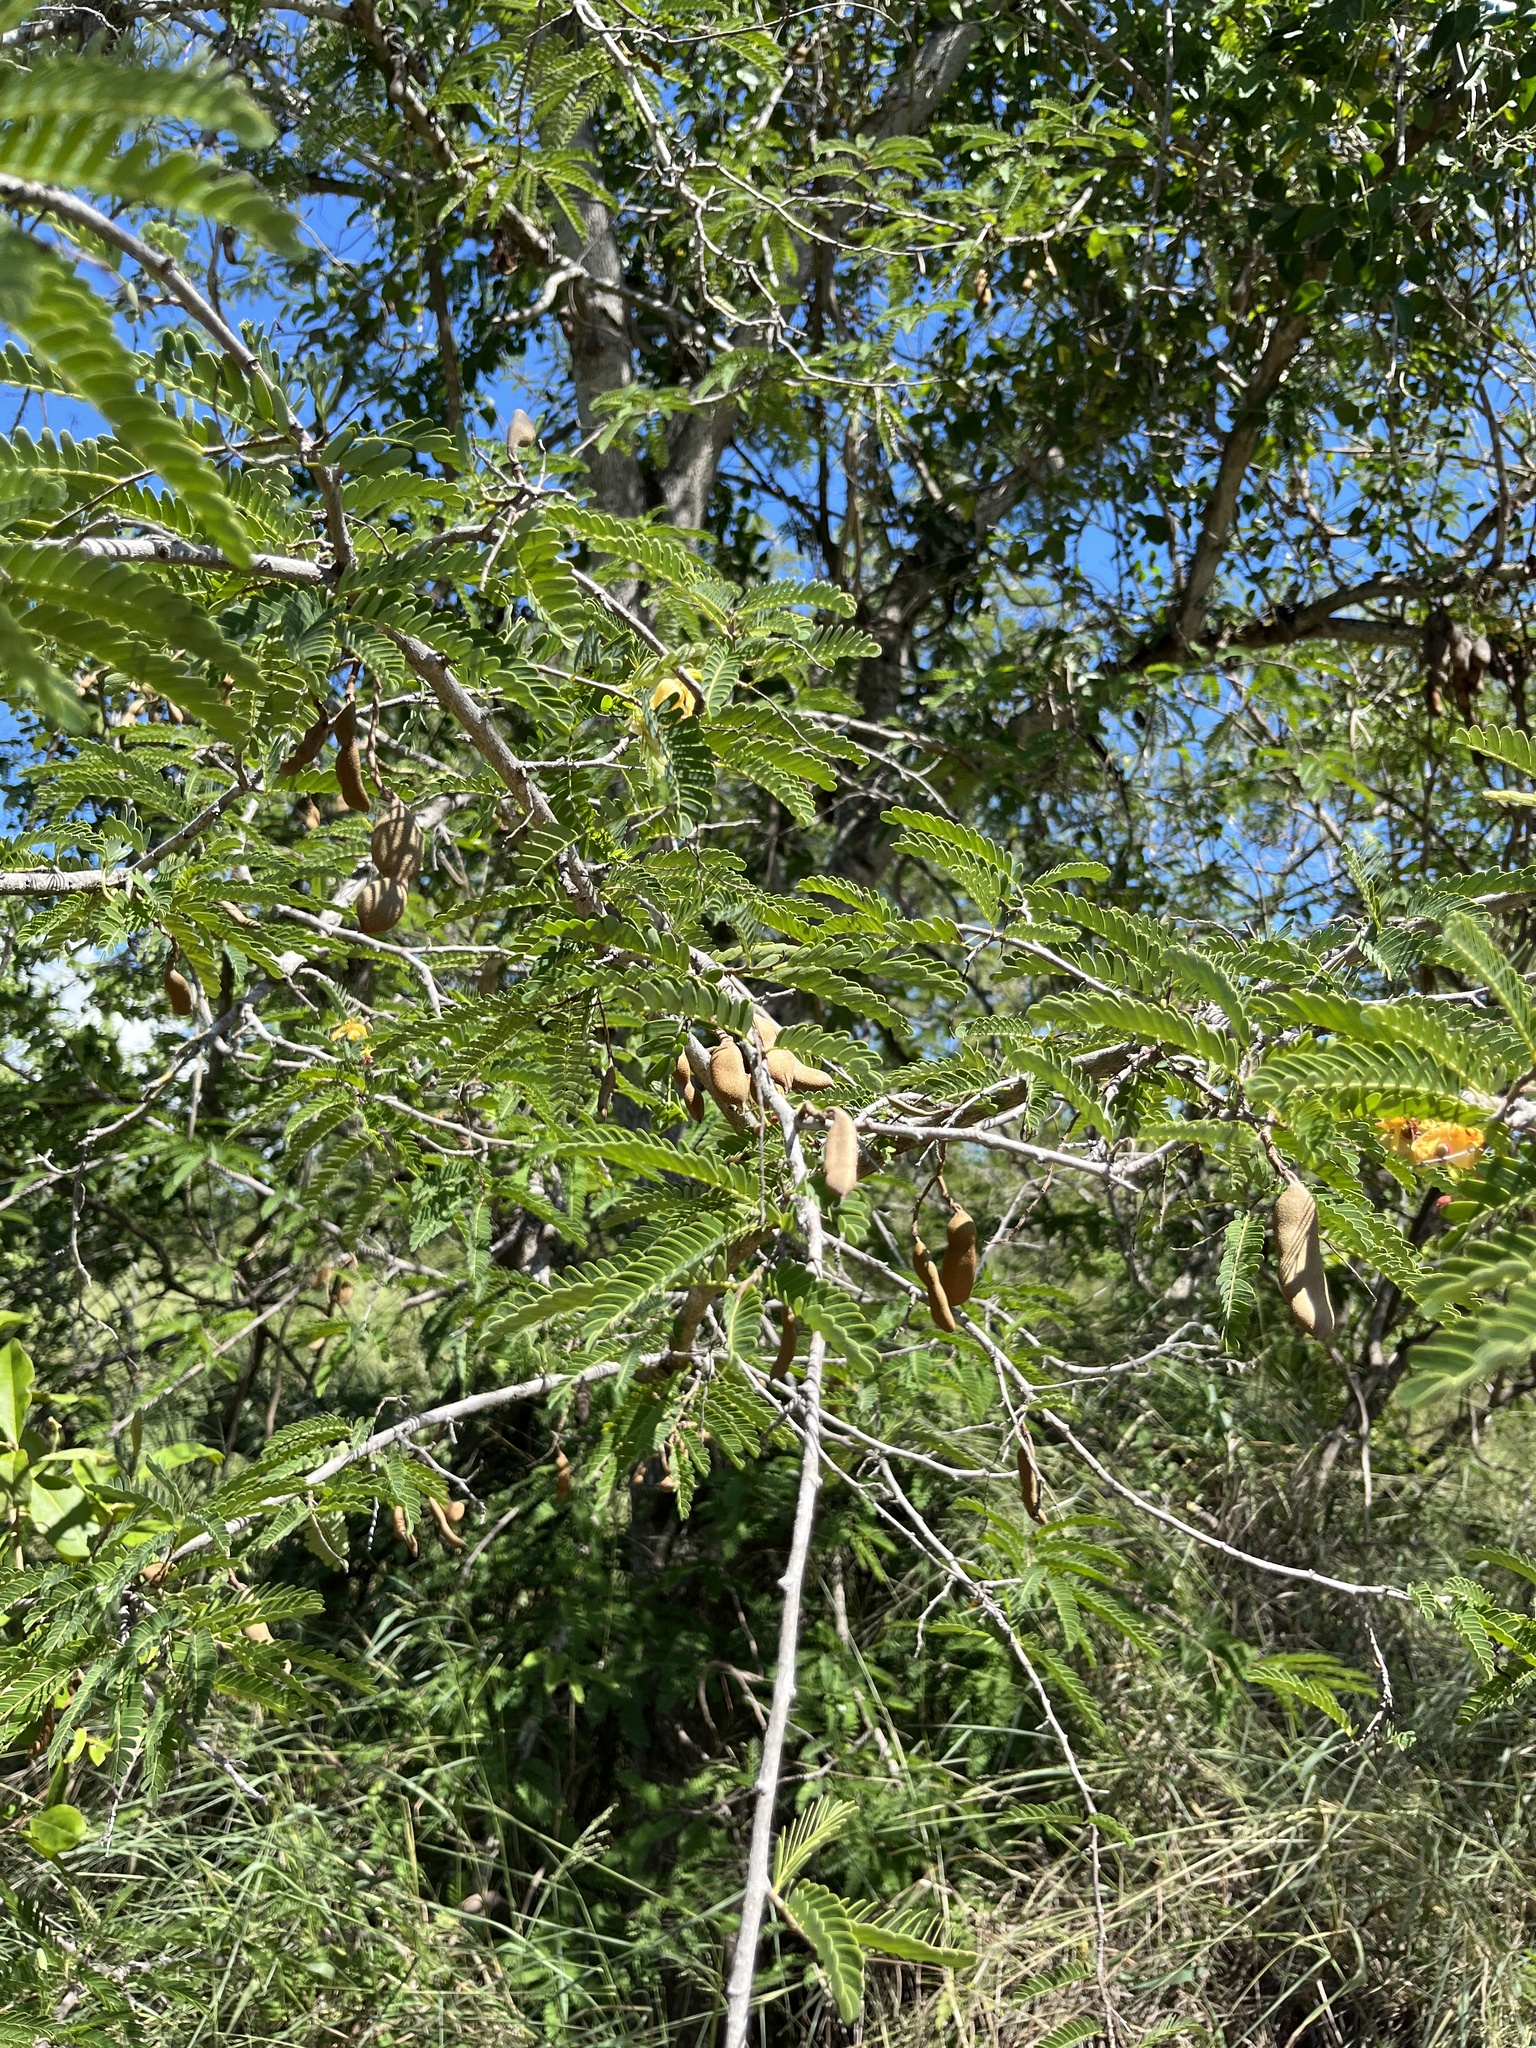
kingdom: Plantae
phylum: Tracheophyta
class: Magnoliopsida
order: Fabales
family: Fabaceae
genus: Tamarindus
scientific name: Tamarindus indica
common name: Tamarind
